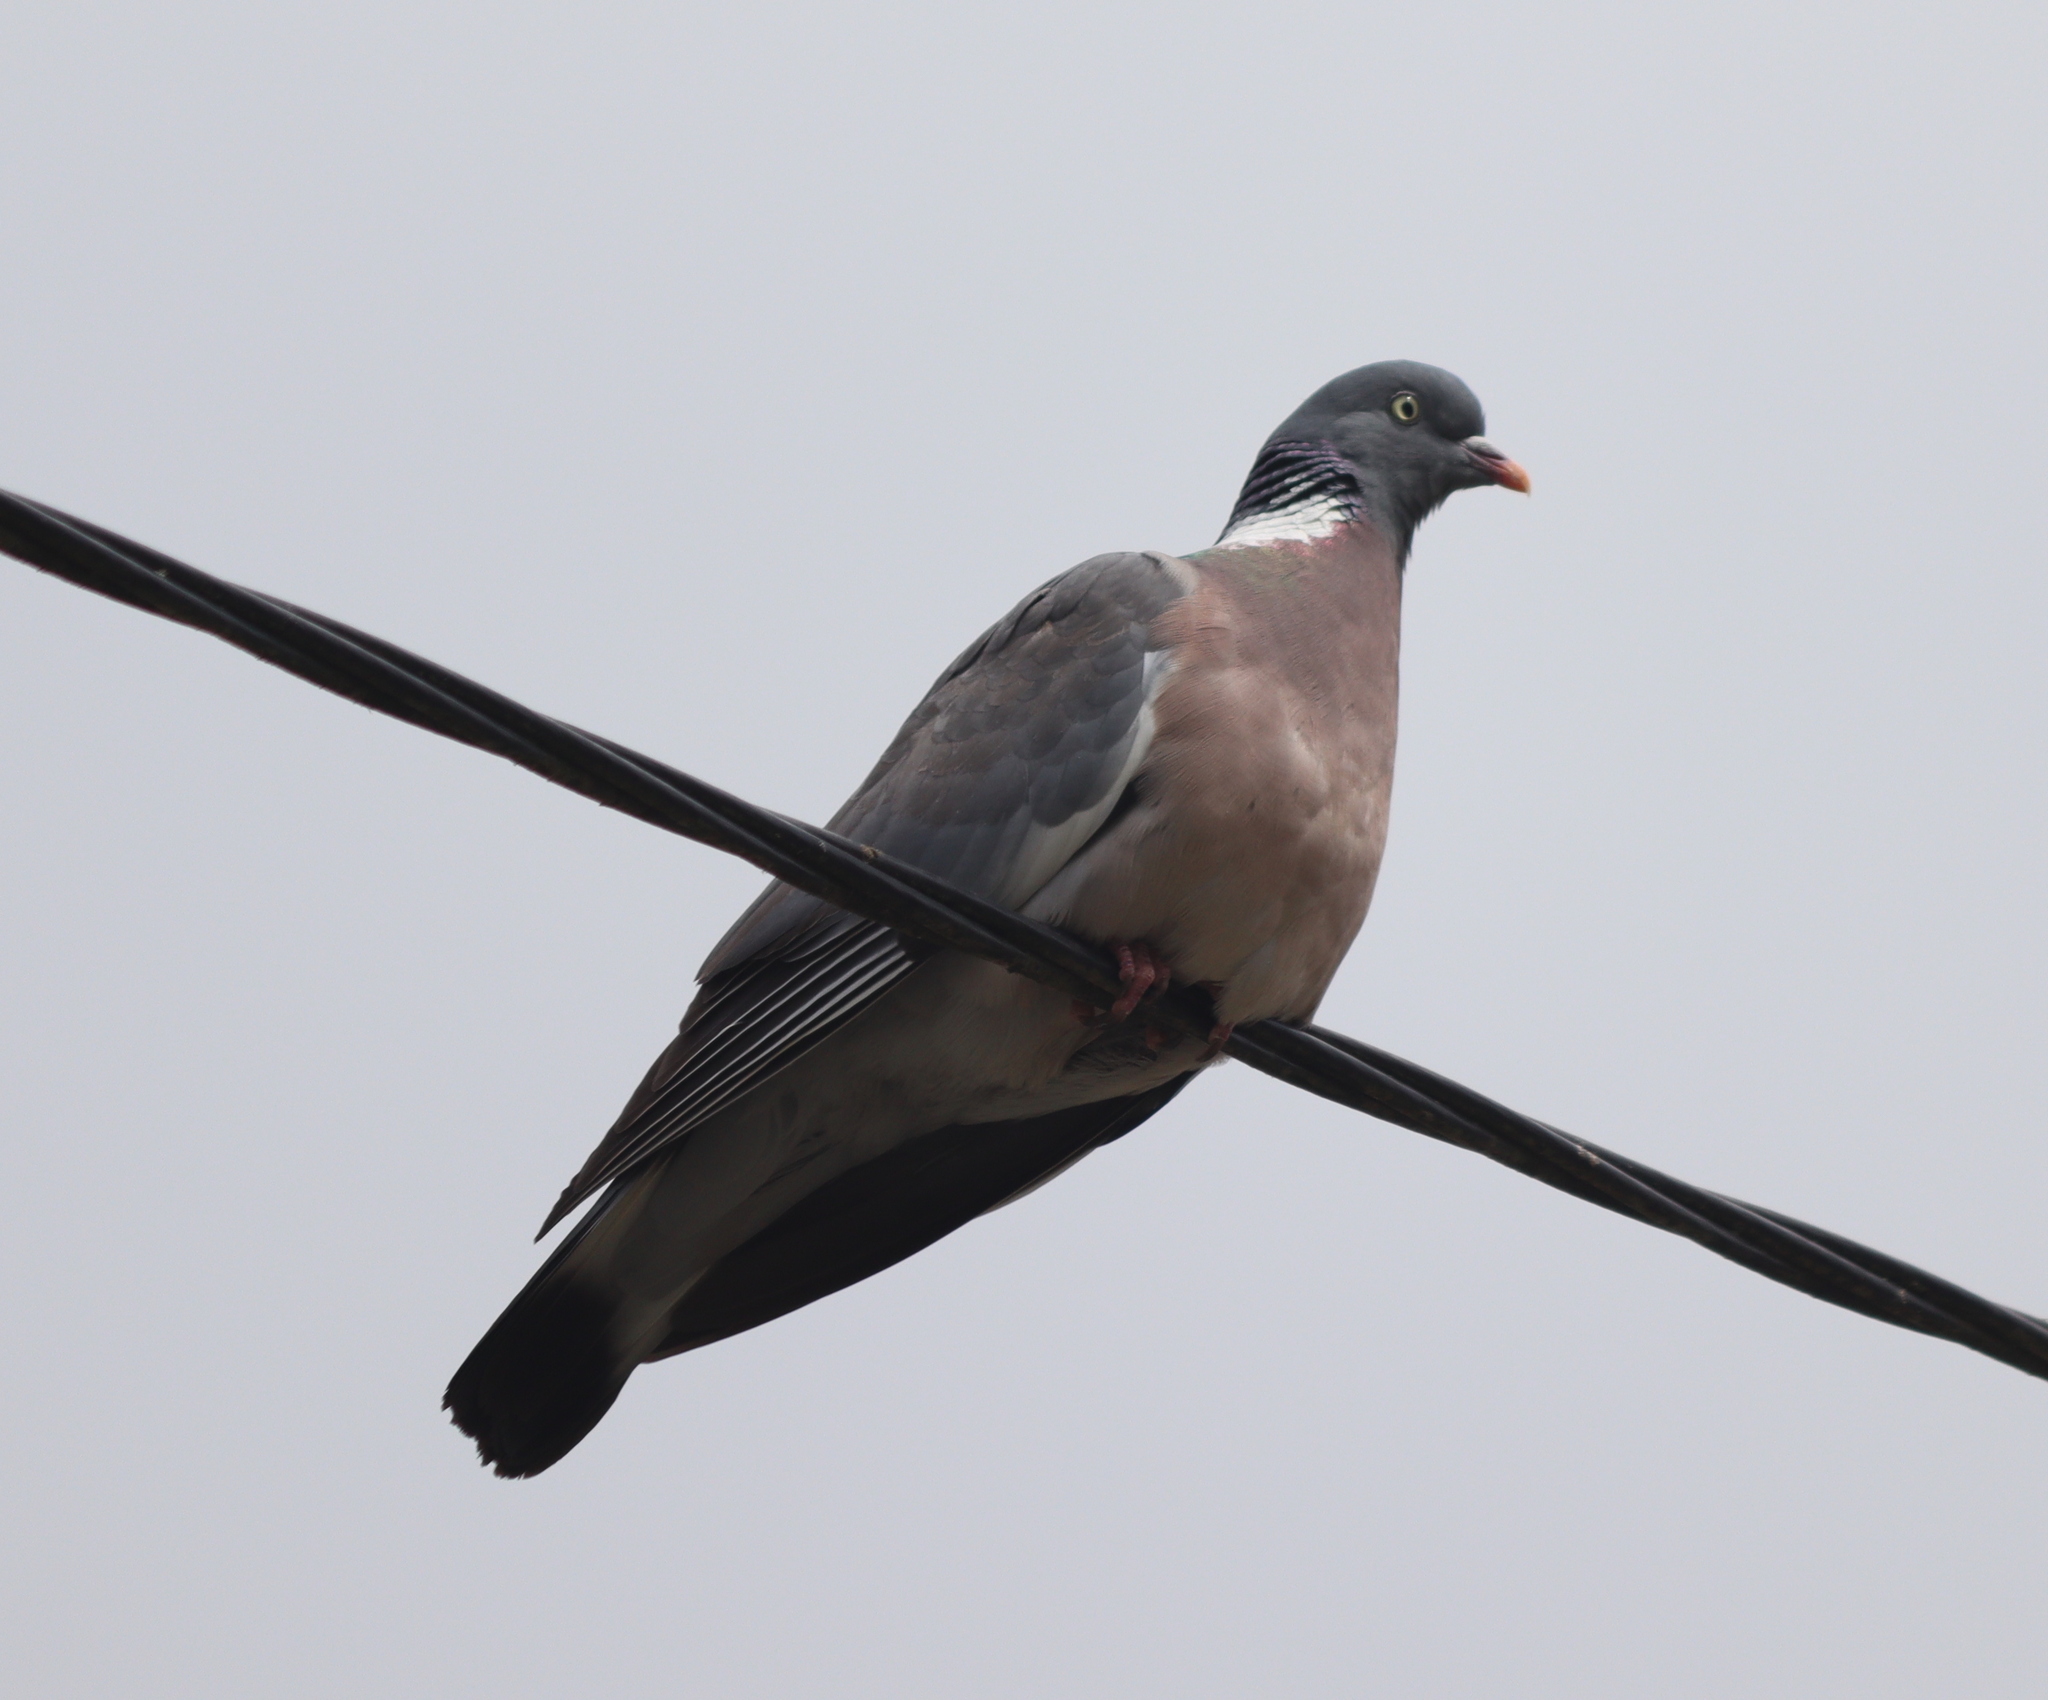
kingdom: Animalia
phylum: Chordata
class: Aves
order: Columbiformes
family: Columbidae
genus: Columba
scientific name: Columba palumbus
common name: Common wood pigeon
